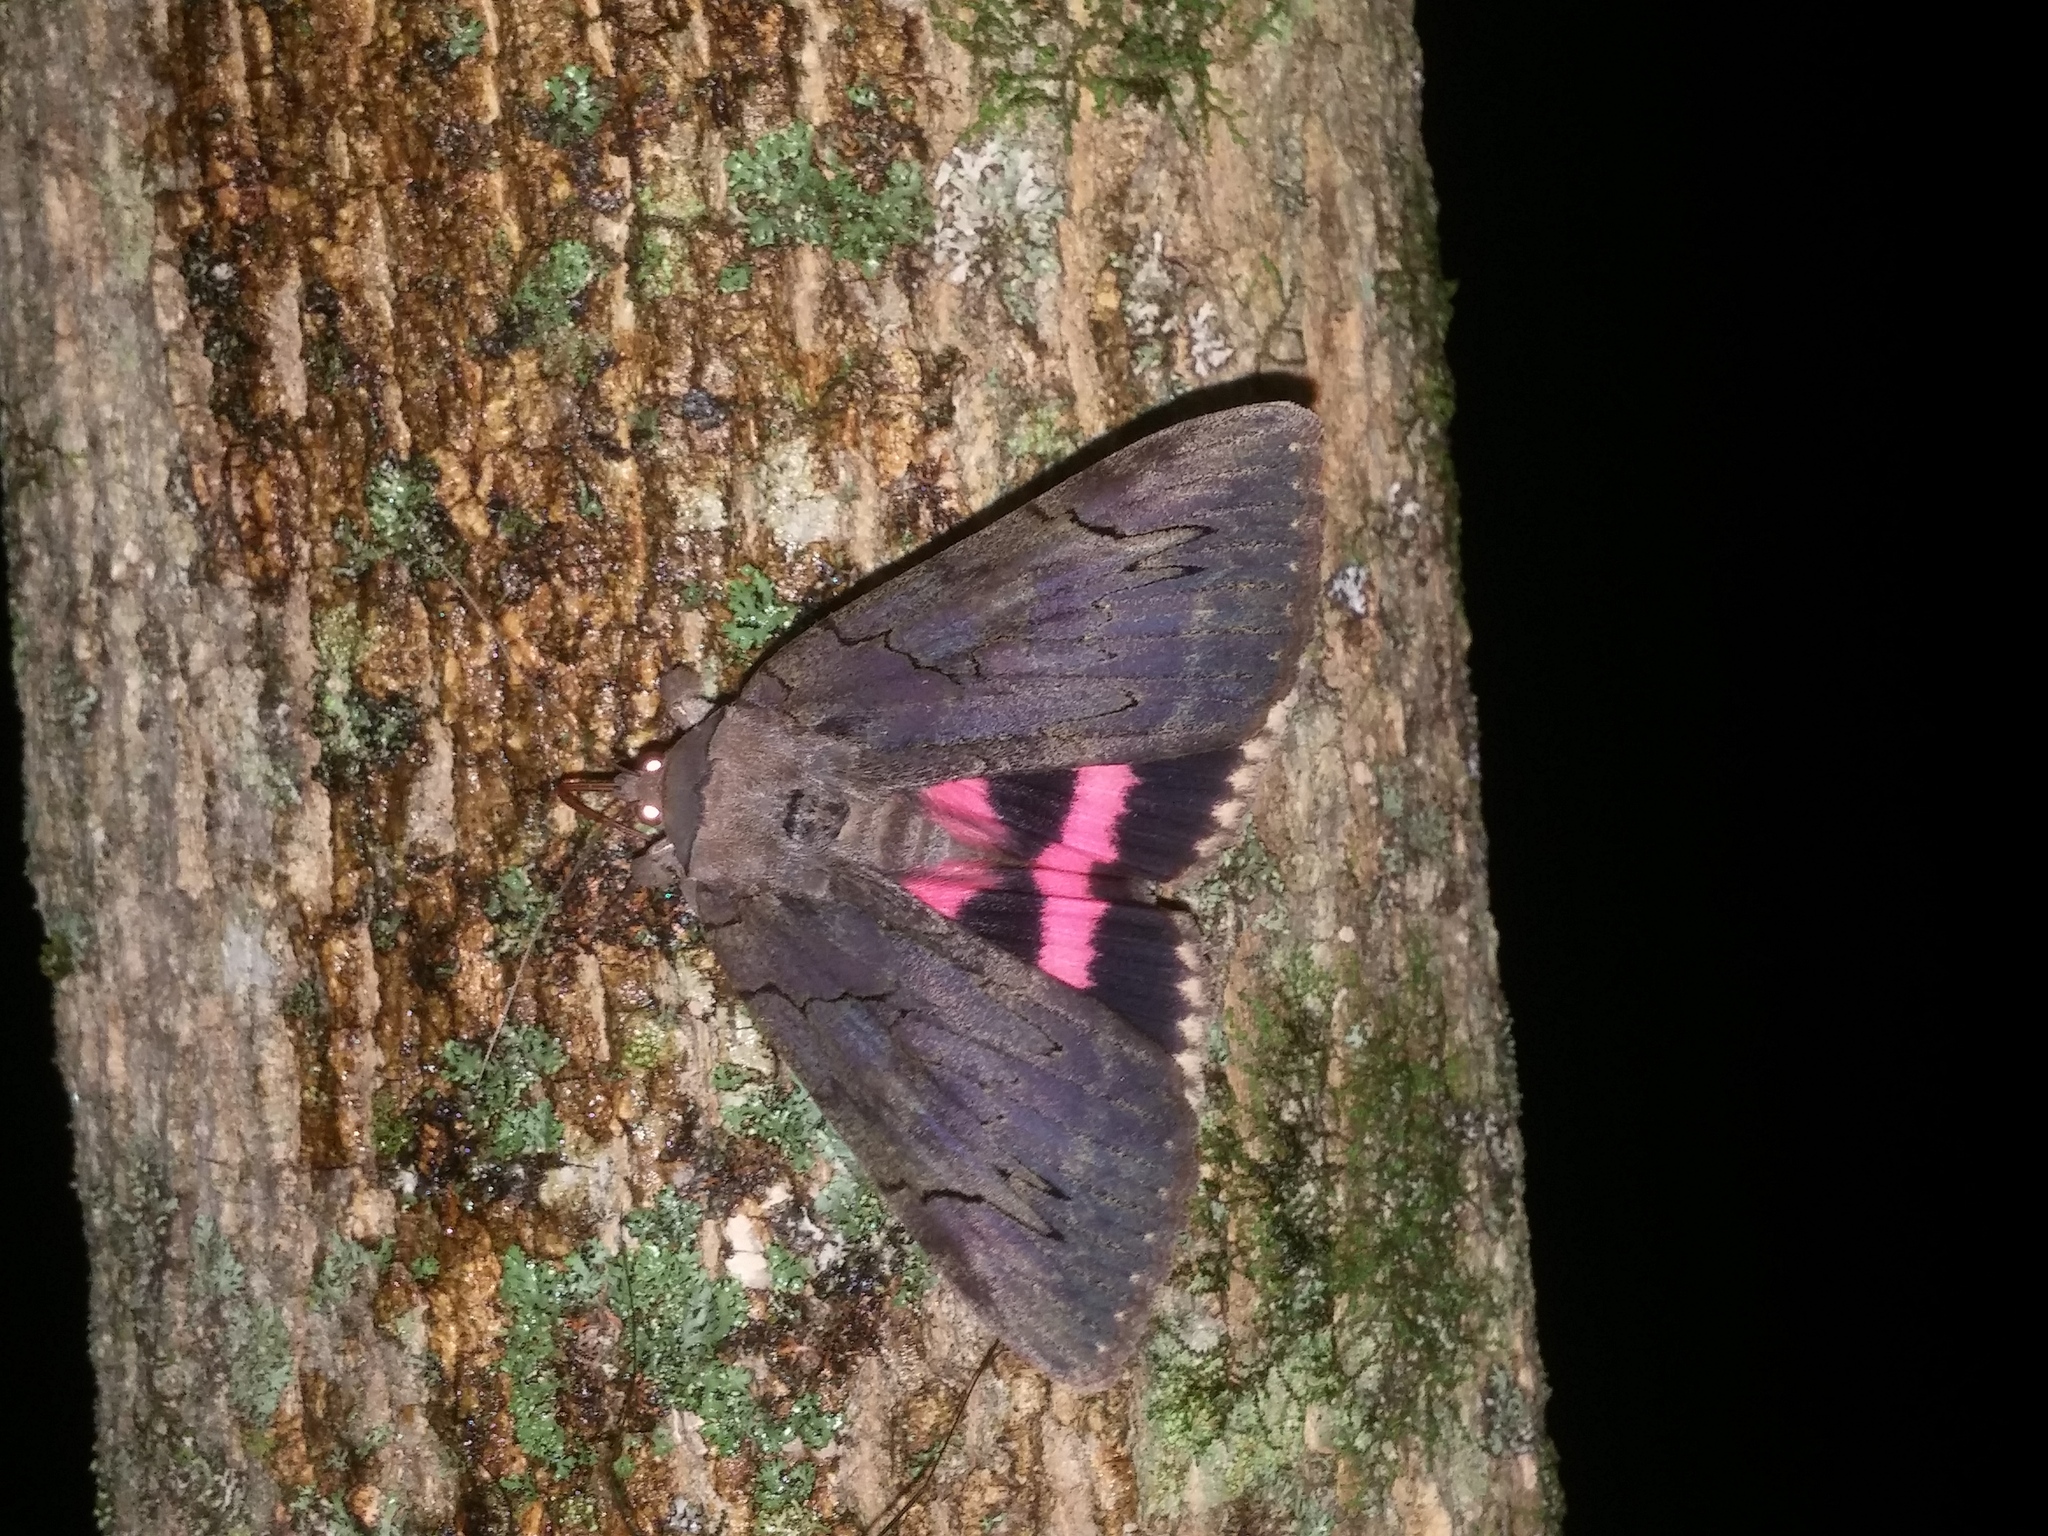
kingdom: Animalia
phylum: Arthropoda
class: Insecta
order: Lepidoptera
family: Erebidae
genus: Catocala
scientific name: Catocala cara
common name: Darling underwing
